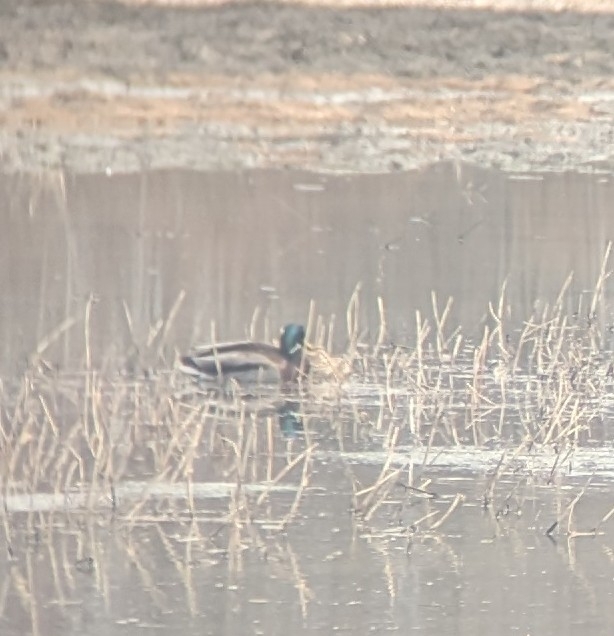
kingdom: Animalia
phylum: Chordata
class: Aves
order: Anseriformes
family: Anatidae
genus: Anas
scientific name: Anas platyrhynchos
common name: Mallard
